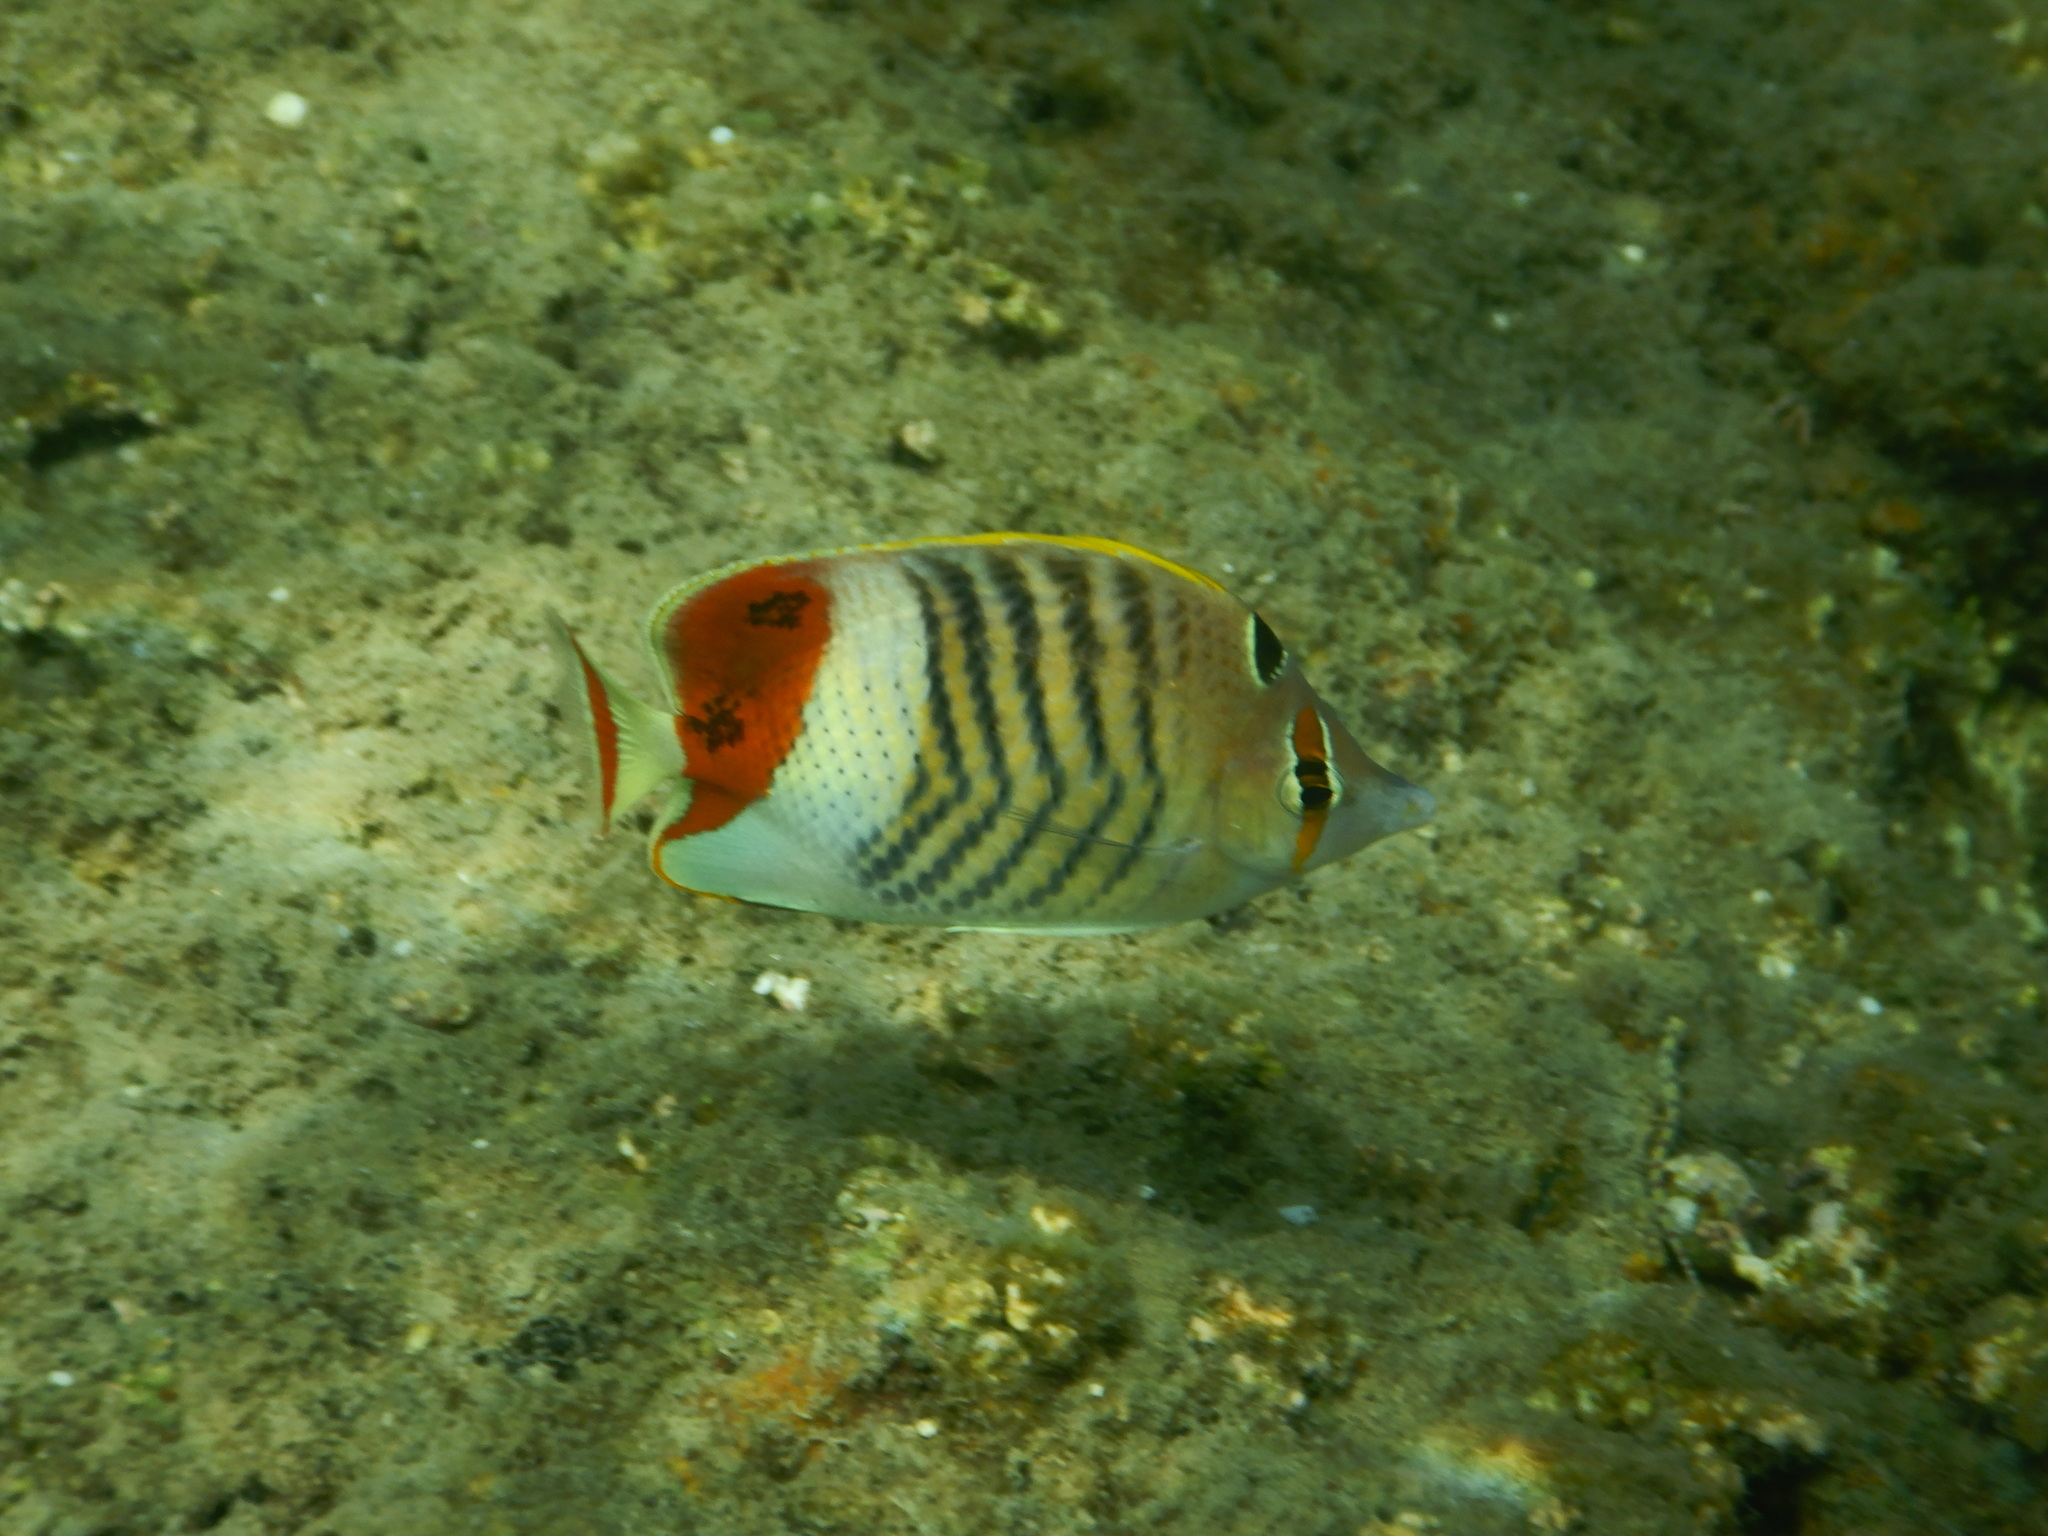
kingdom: Animalia
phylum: Chordata
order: Perciformes
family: Chaetodontidae
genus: Chaetodon
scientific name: Chaetodon paucifasciatus
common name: Crown butterflyfish
